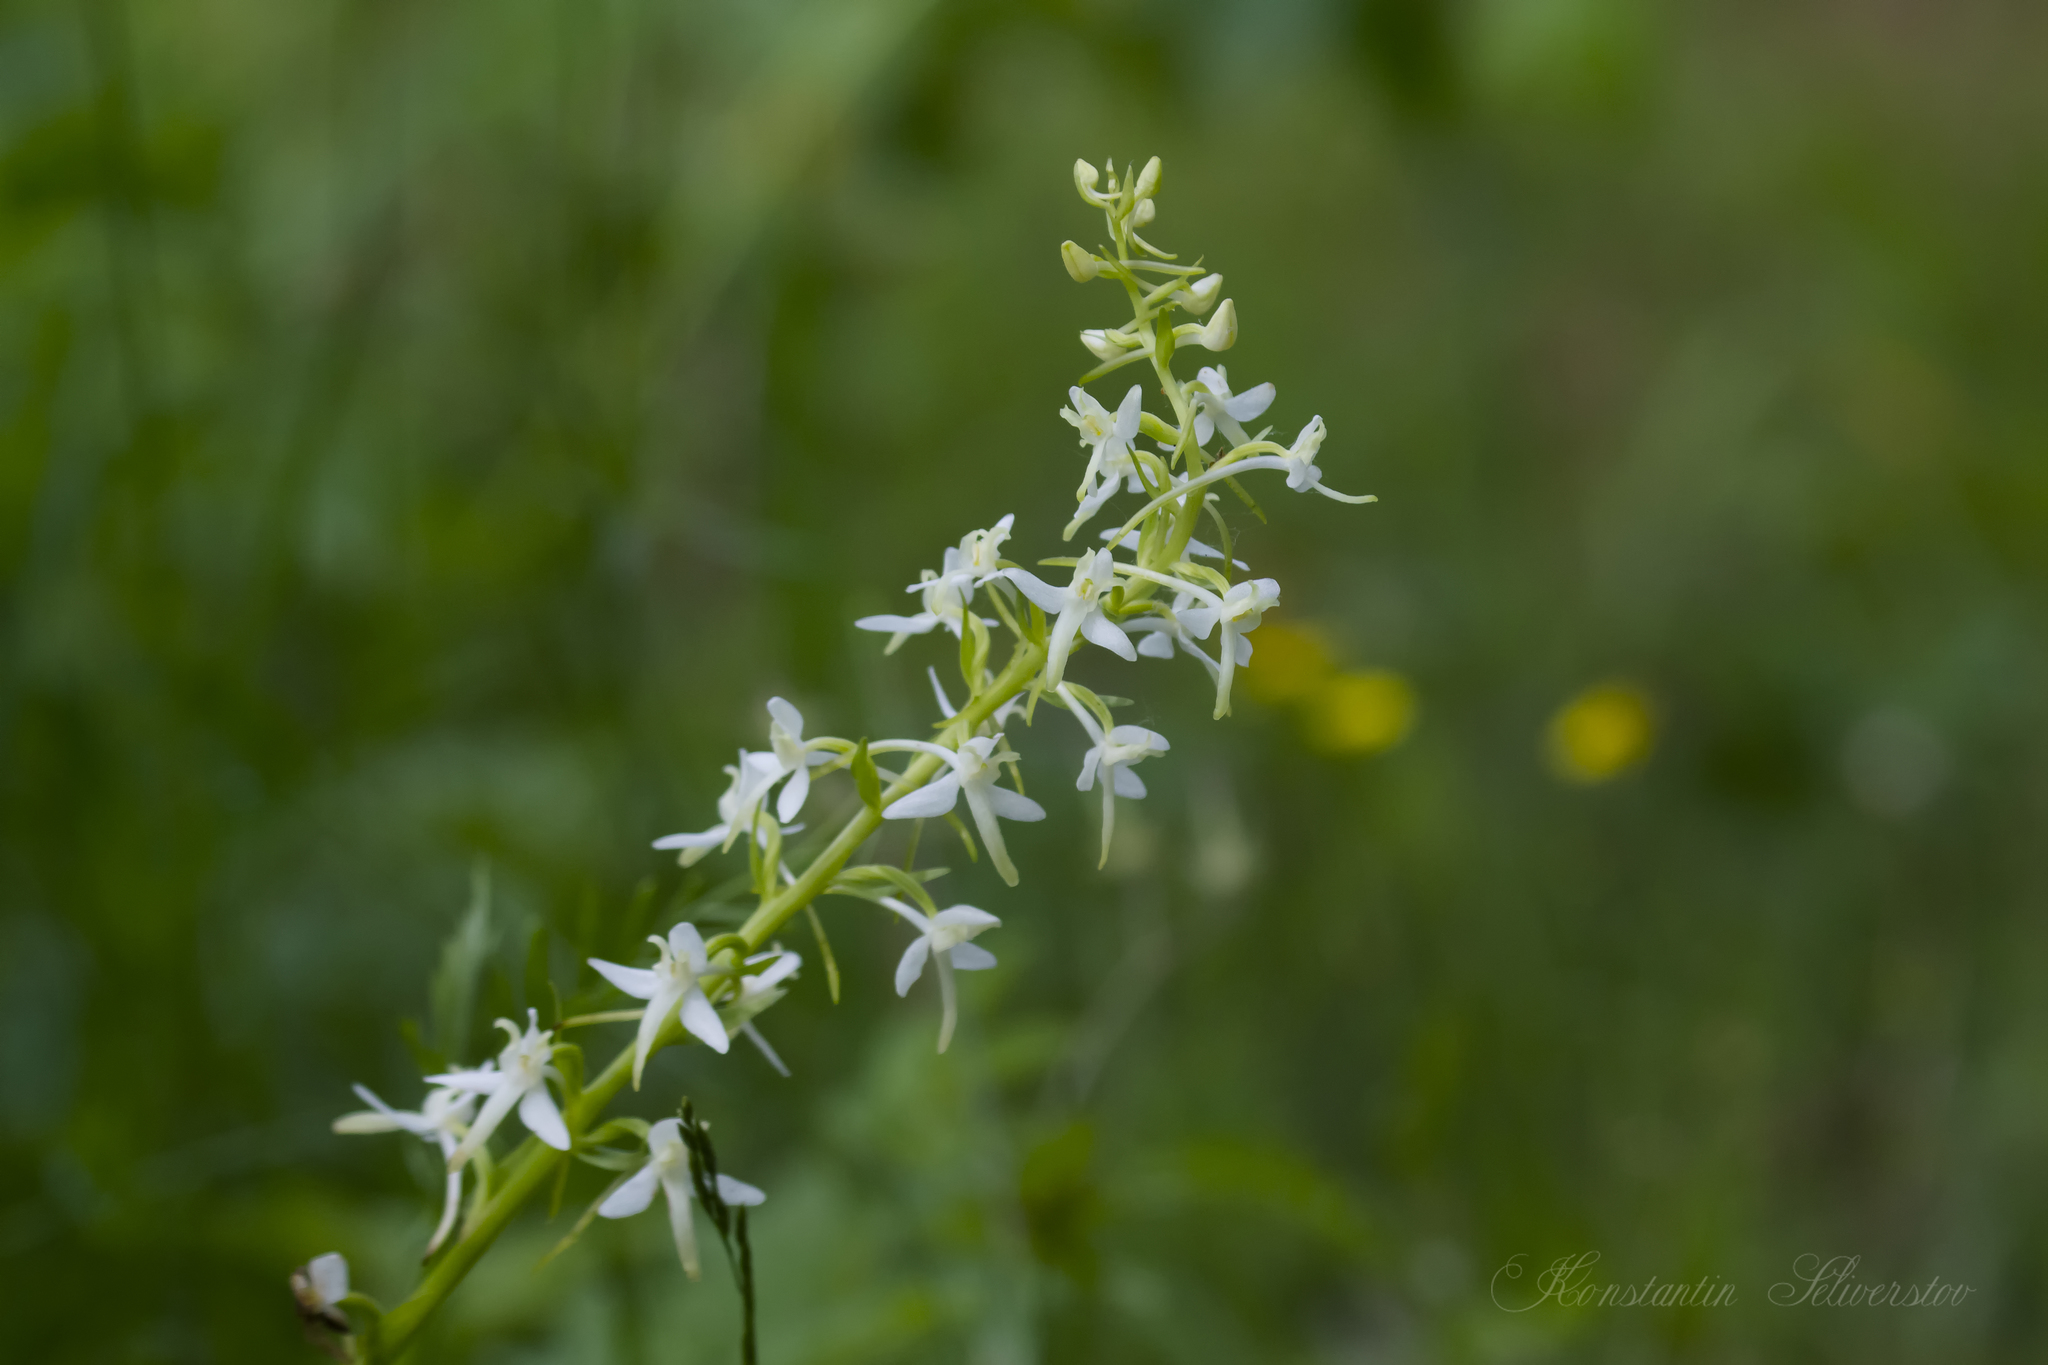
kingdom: Plantae
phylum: Tracheophyta
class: Liliopsida
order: Asparagales
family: Orchidaceae
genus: Platanthera
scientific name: Platanthera bifolia
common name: Lesser butterfly-orchid
